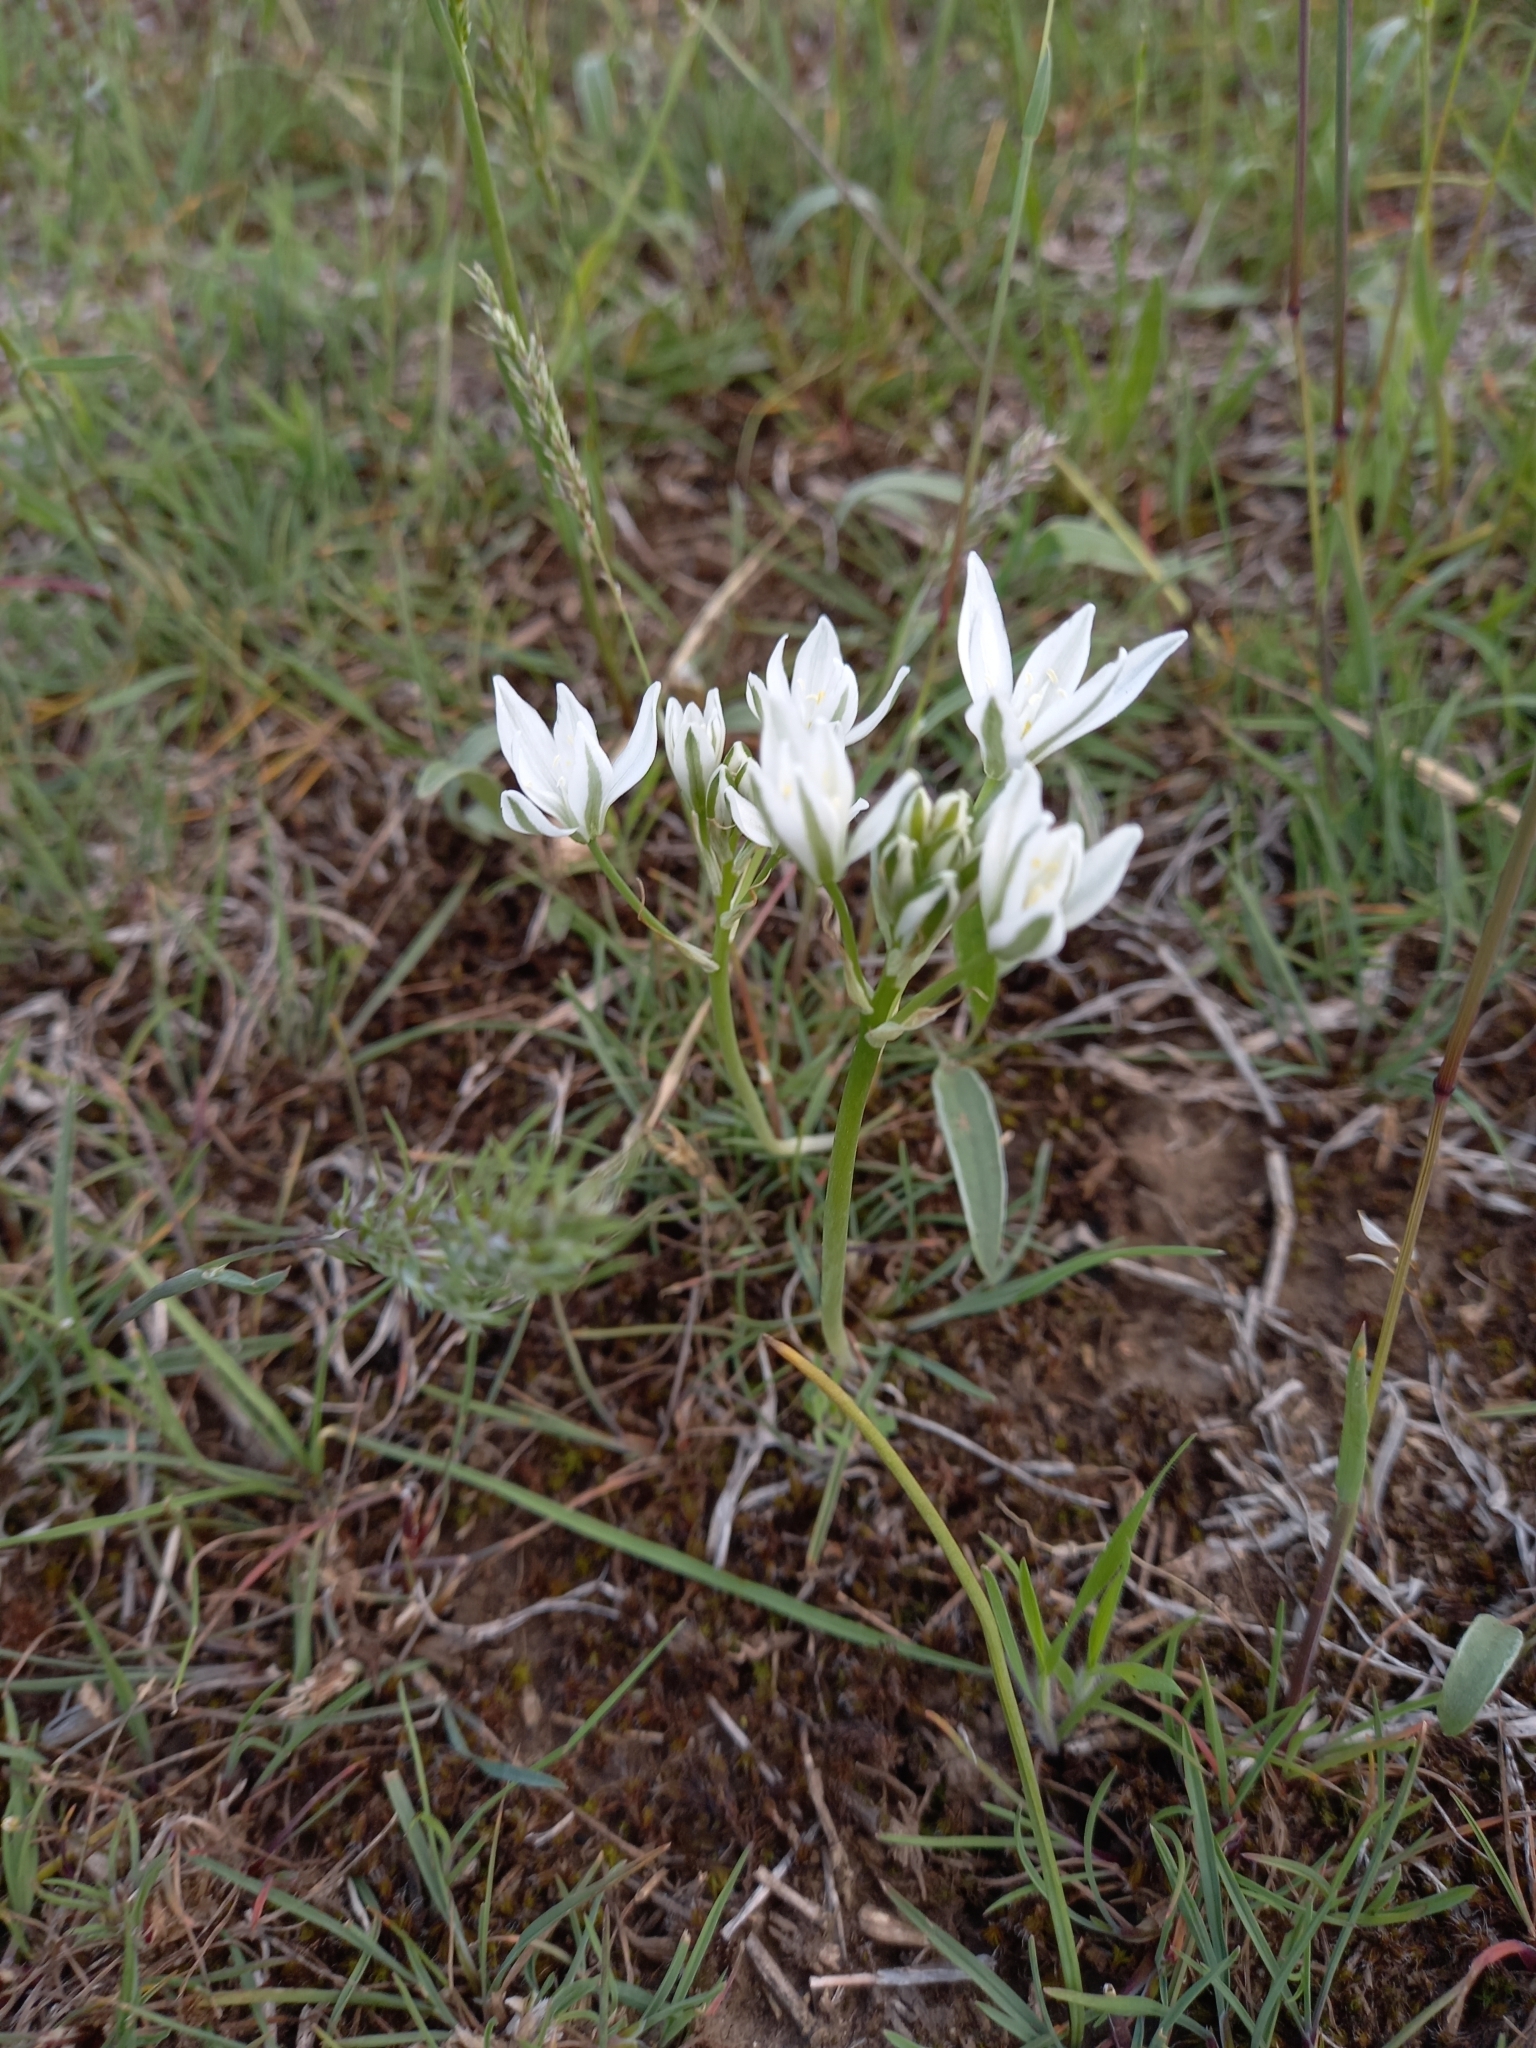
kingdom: Plantae
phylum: Tracheophyta
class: Liliopsida
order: Asparagales
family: Asparagaceae
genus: Ornithogalum
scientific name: Ornithogalum umbellatum
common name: Garden star-of-bethlehem
